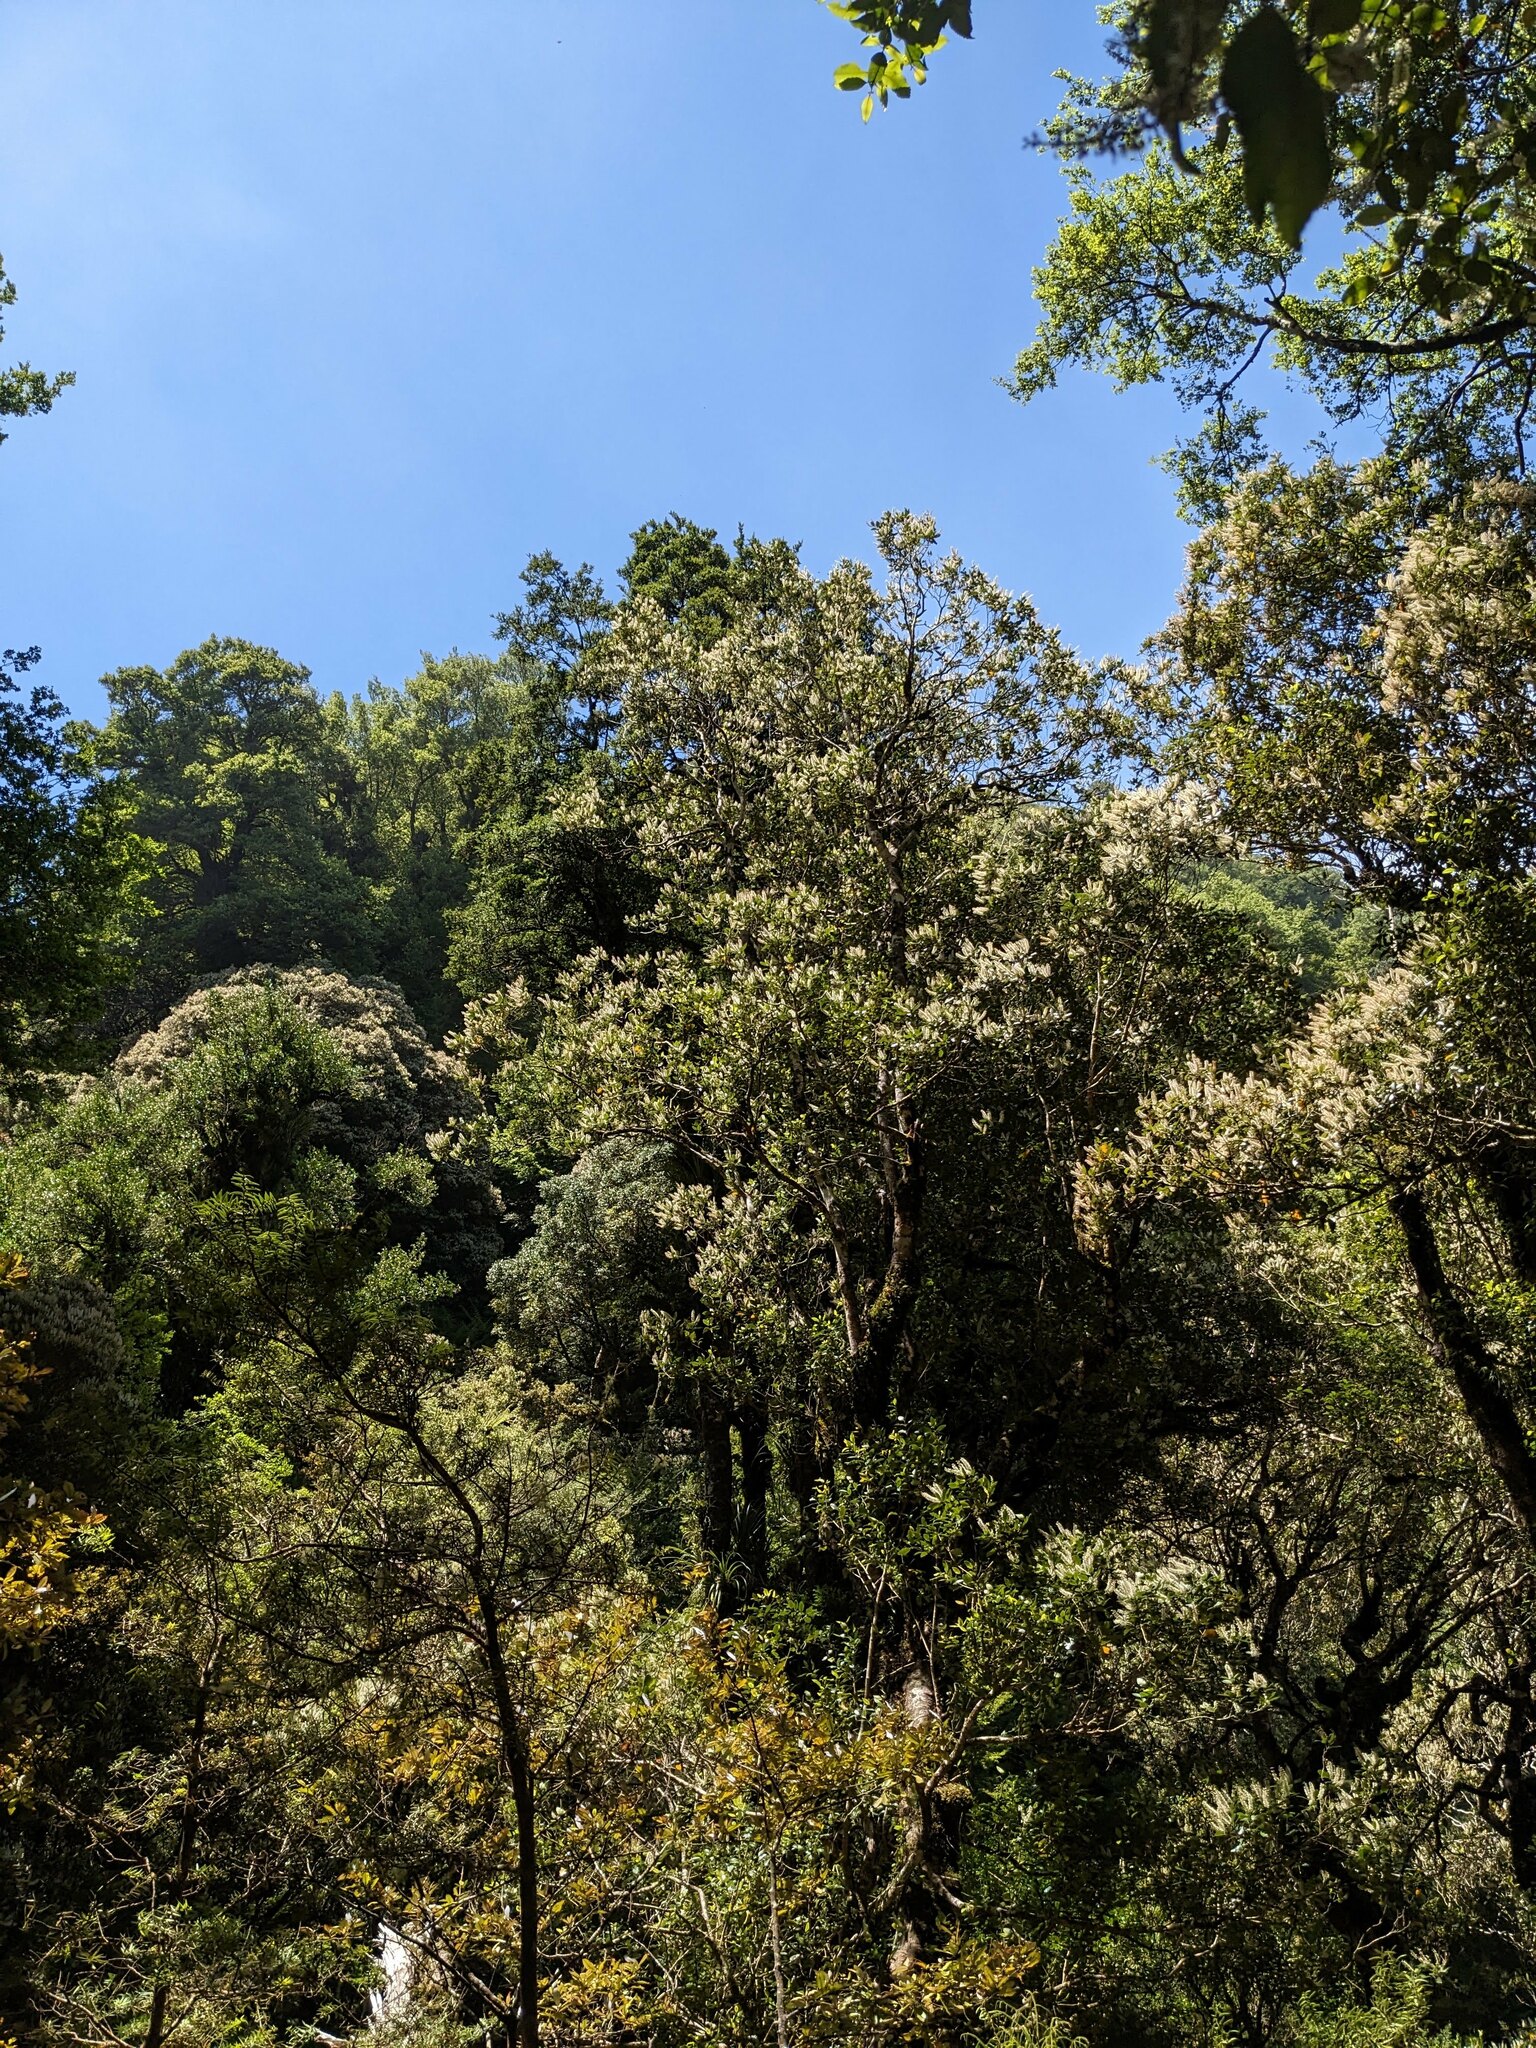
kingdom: Plantae
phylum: Tracheophyta
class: Magnoliopsida
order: Oxalidales
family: Cunoniaceae
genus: Pterophylla
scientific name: Pterophylla racemosa
